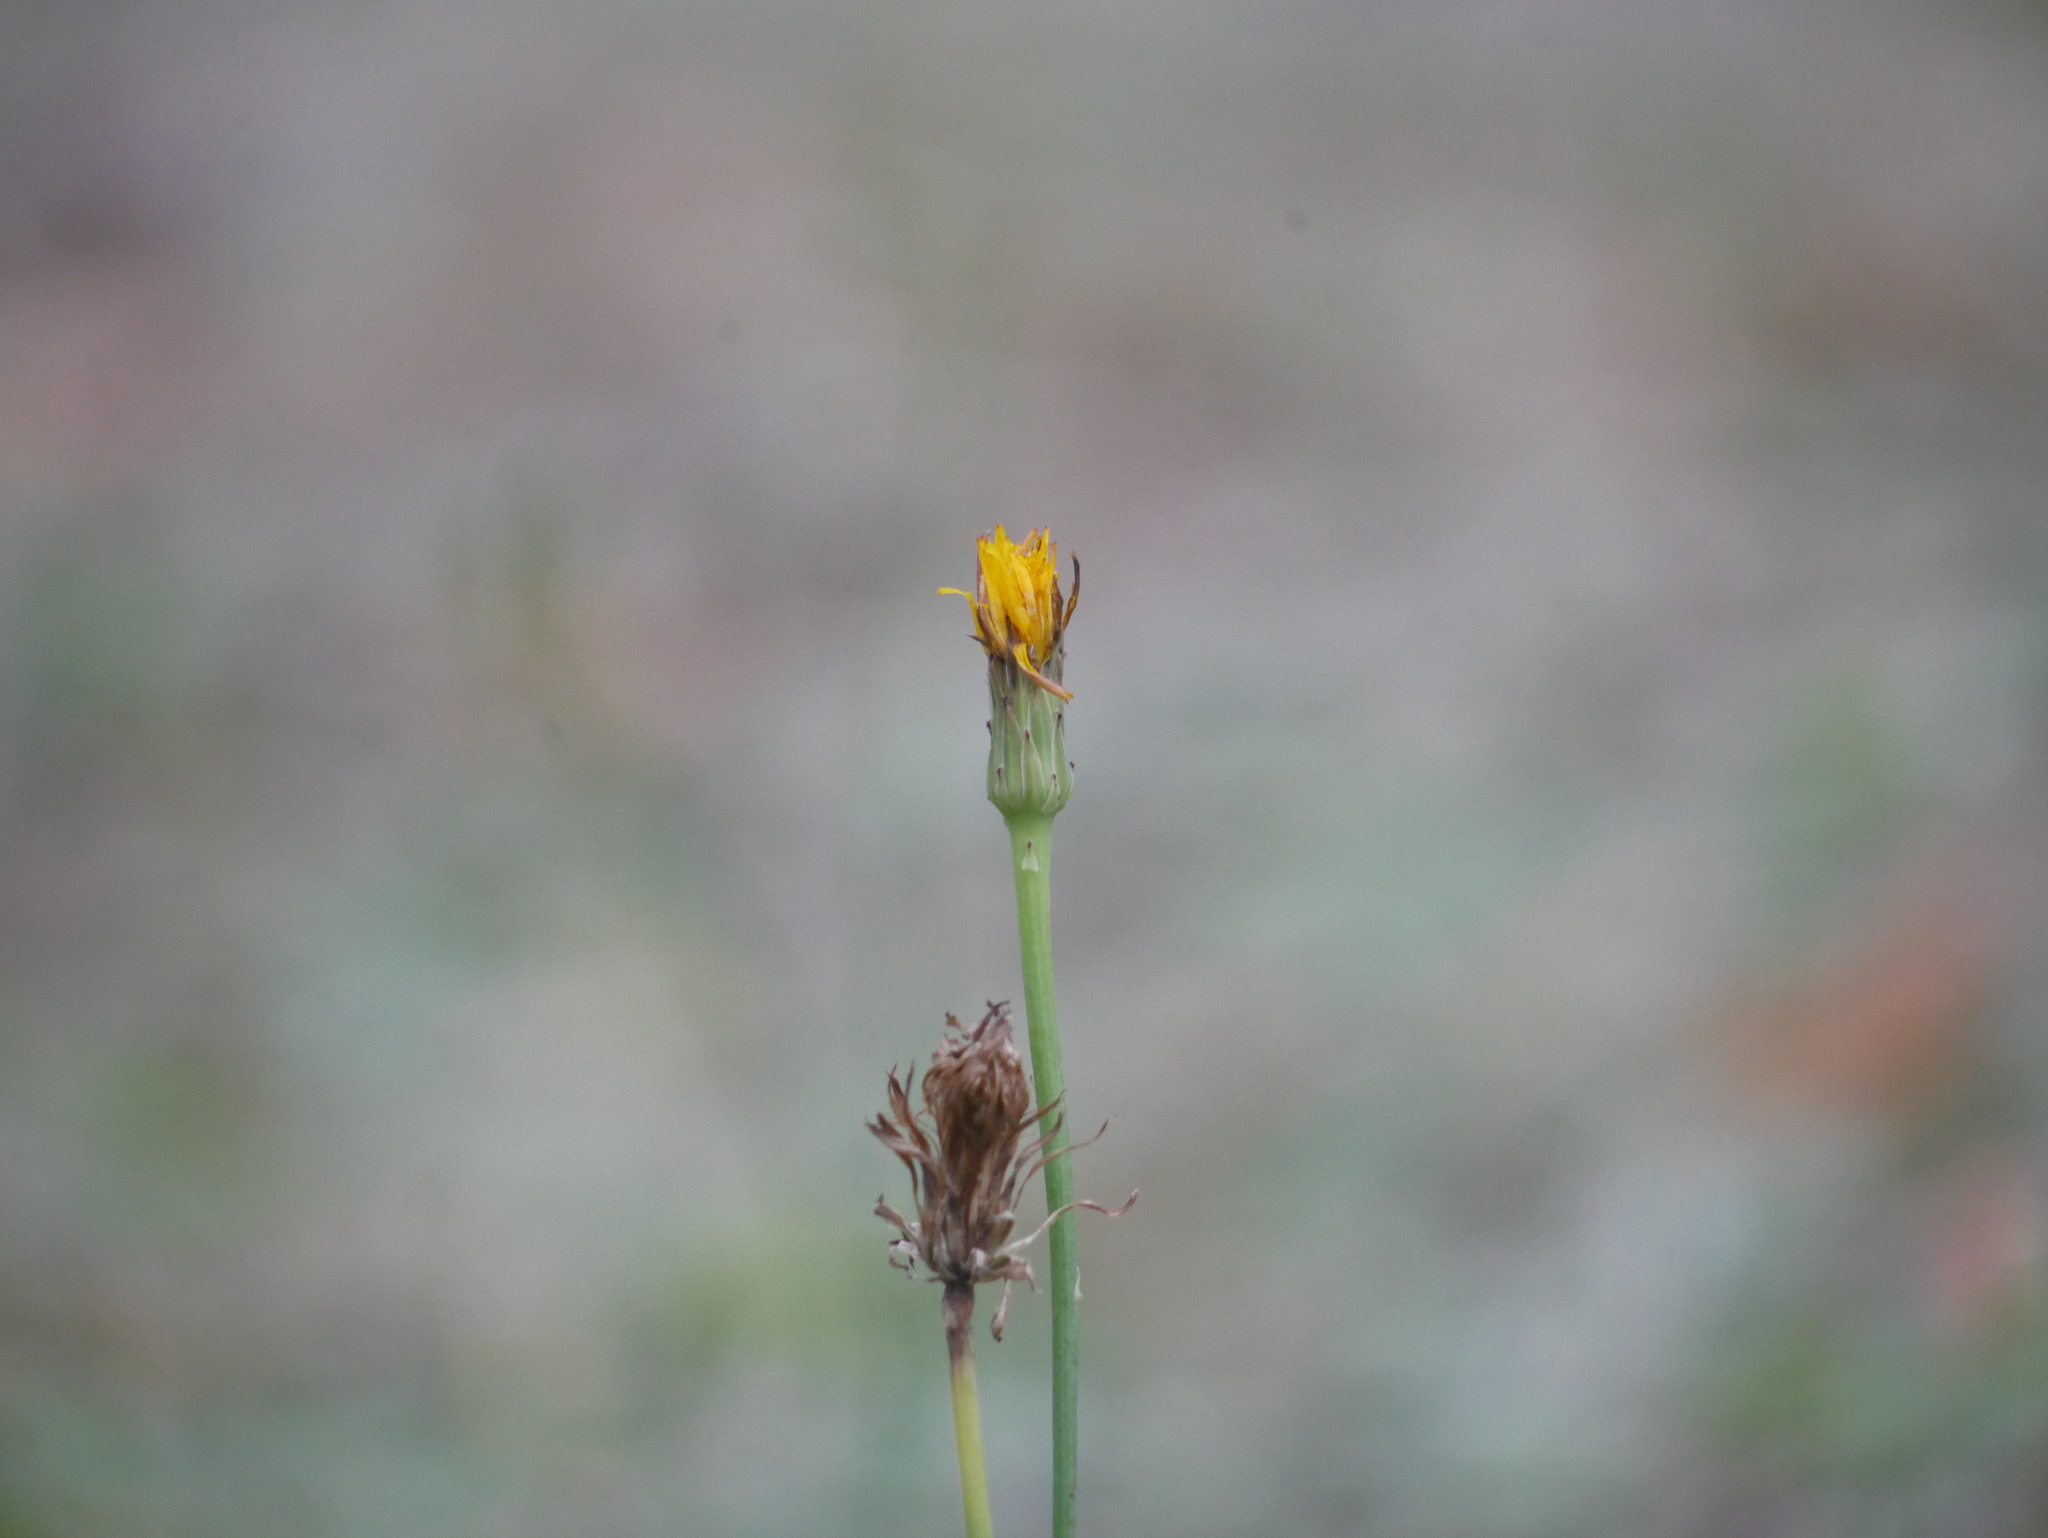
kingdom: Plantae
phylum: Tracheophyta
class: Magnoliopsida
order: Asterales
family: Asteraceae
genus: Hypochaeris
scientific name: Hypochaeris radicata
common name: Flatweed
